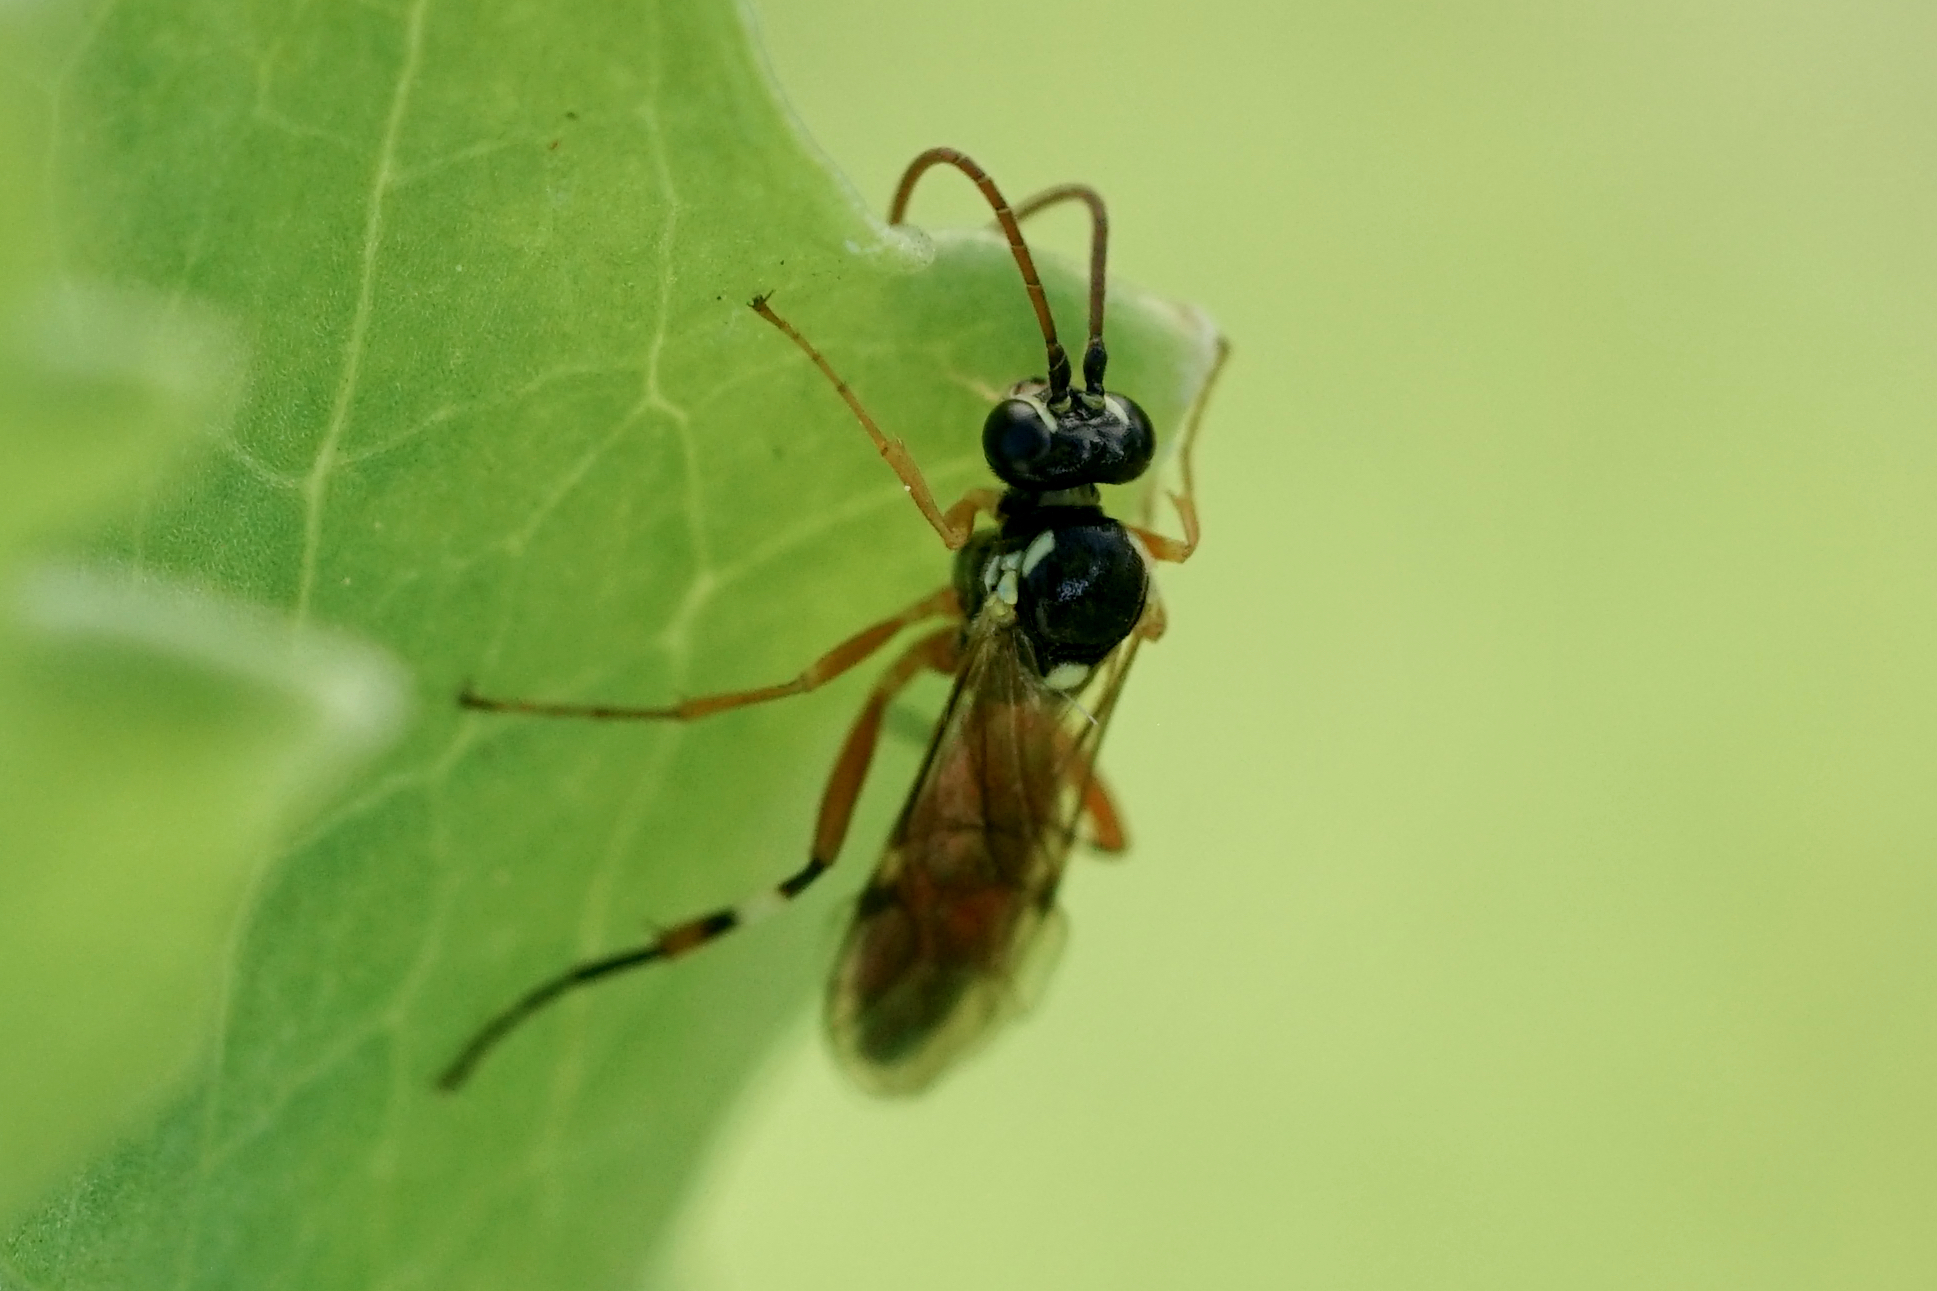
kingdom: Animalia
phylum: Arthropoda
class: Insecta
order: Hymenoptera
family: Ichneumonidae
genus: Diplazon
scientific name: Diplazon laetatorius
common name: Parasitoid wasp
